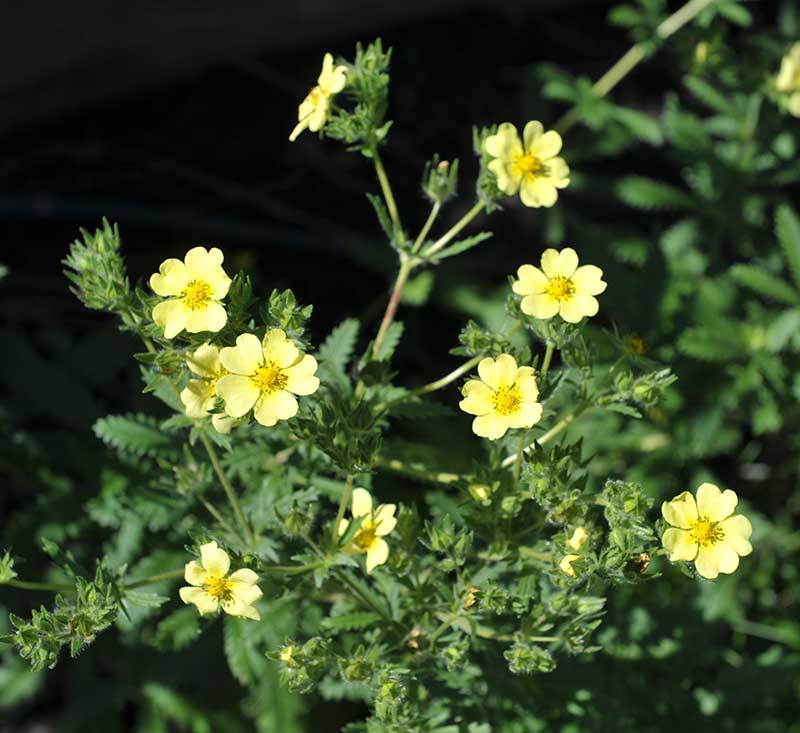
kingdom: Plantae
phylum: Tracheophyta
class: Magnoliopsida
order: Rosales
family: Rosaceae
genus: Potentilla
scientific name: Potentilla recta
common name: Sulphur cinquefoil
